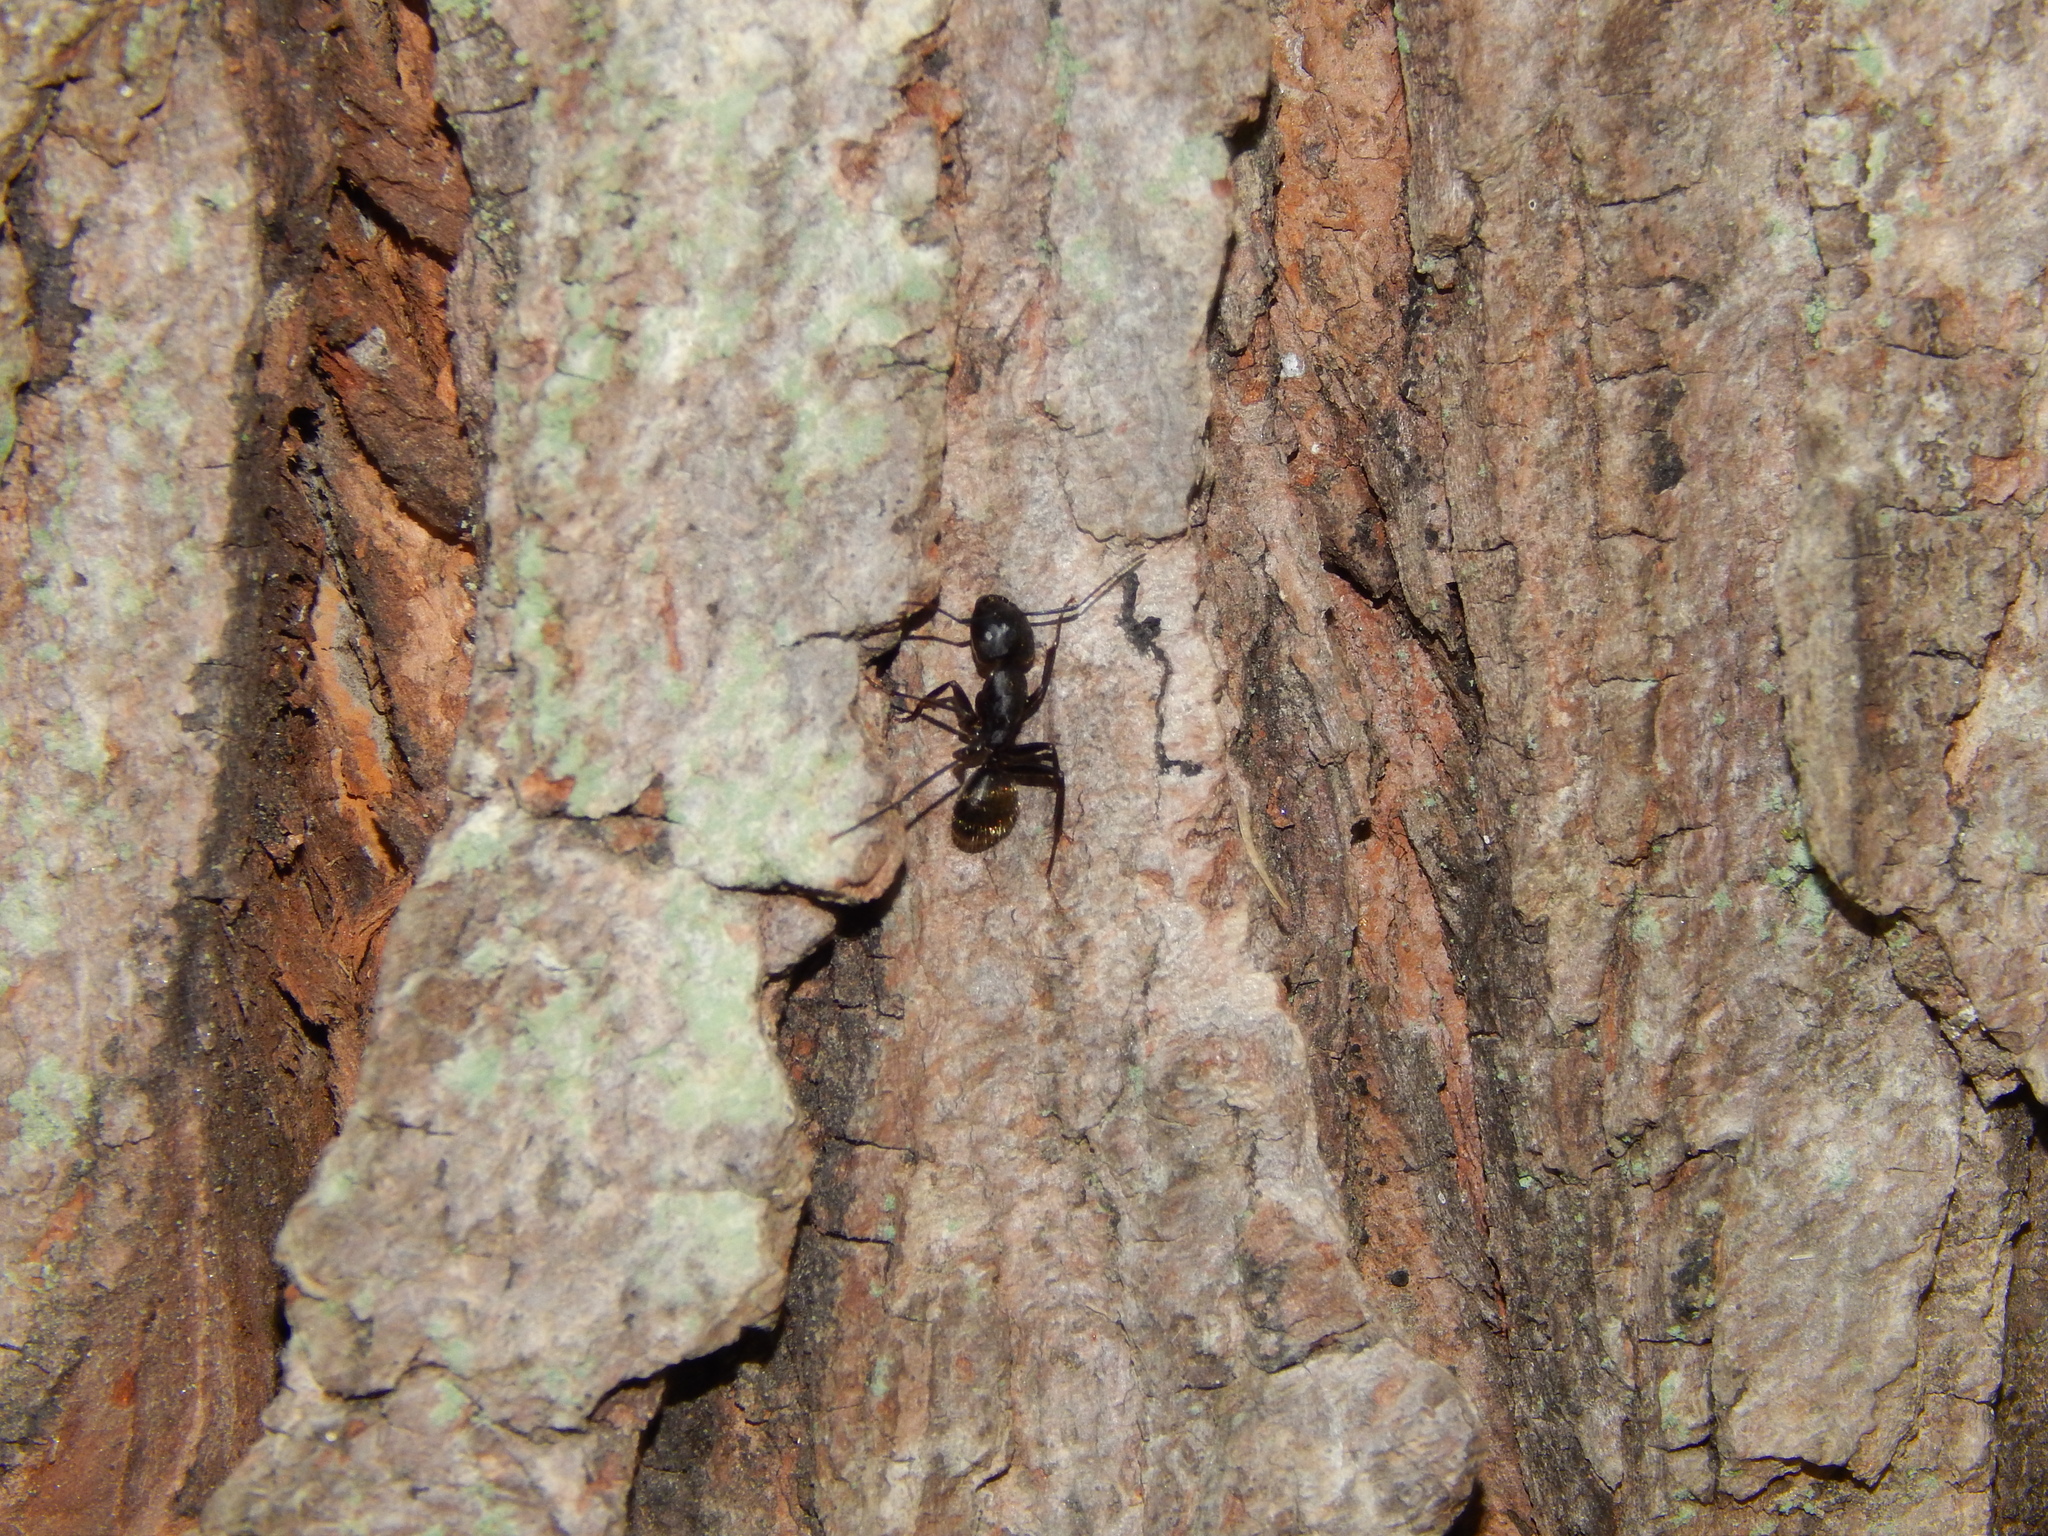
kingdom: Animalia
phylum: Arthropoda
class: Insecta
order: Hymenoptera
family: Formicidae
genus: Camponotus
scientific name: Camponotus pennsylvanicus
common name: Black carpenter ant
